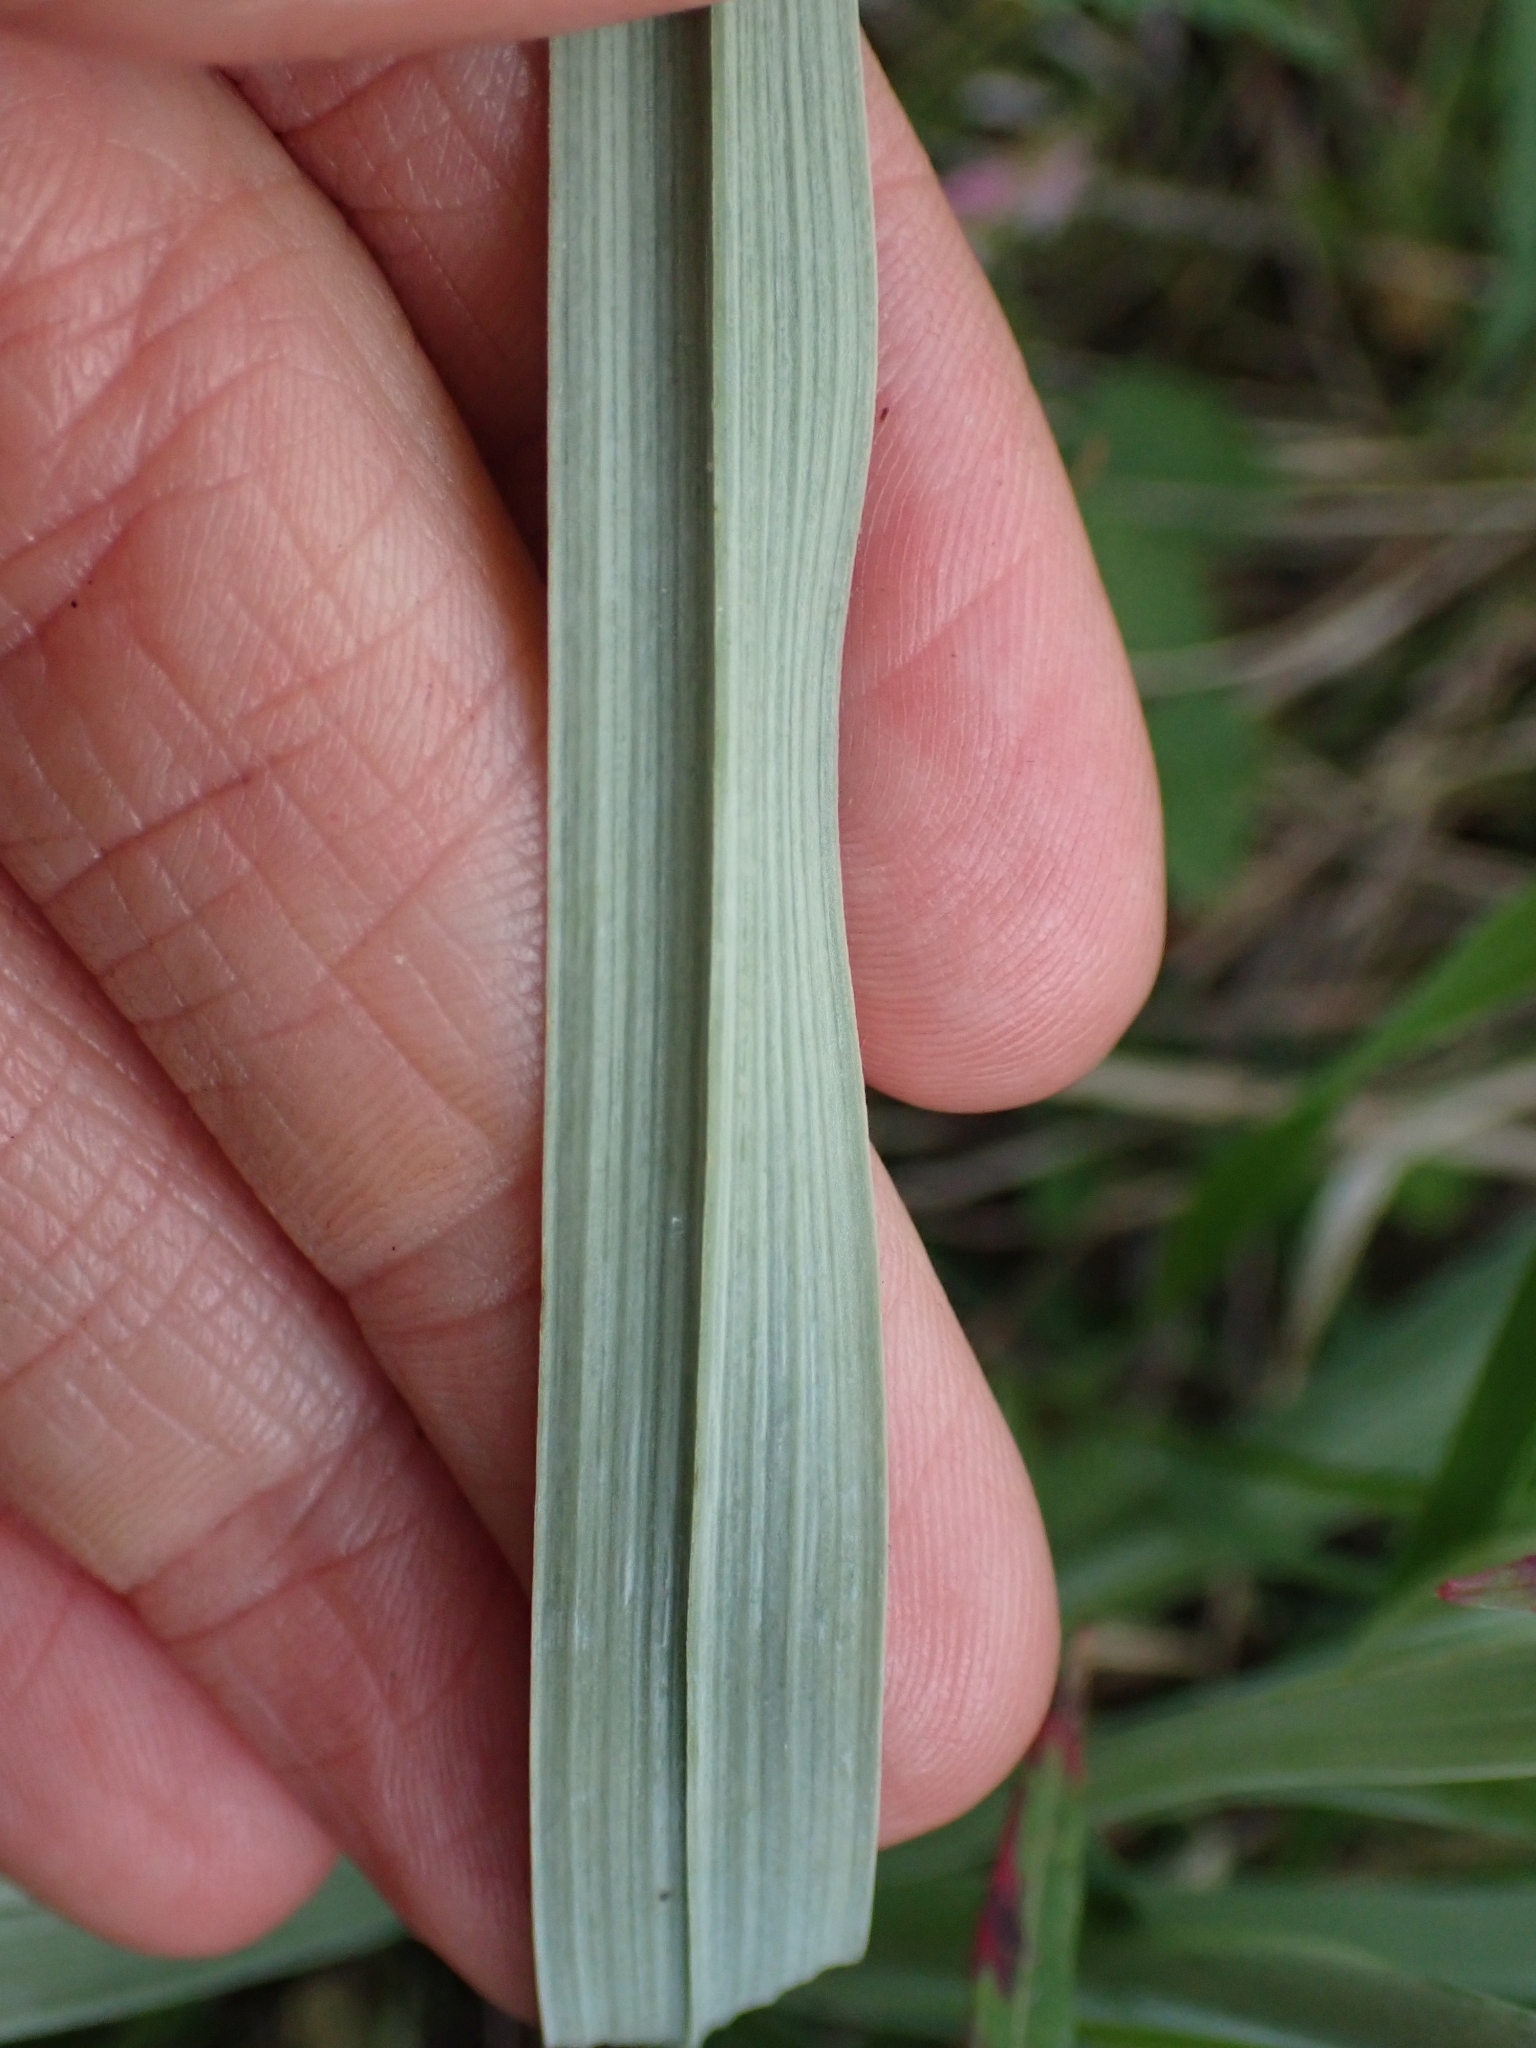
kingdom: Plantae
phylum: Tracheophyta
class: Liliopsida
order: Liliales
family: Melanthiaceae
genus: Anticlea
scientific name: Anticlea elegans
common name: Mountain death camas
